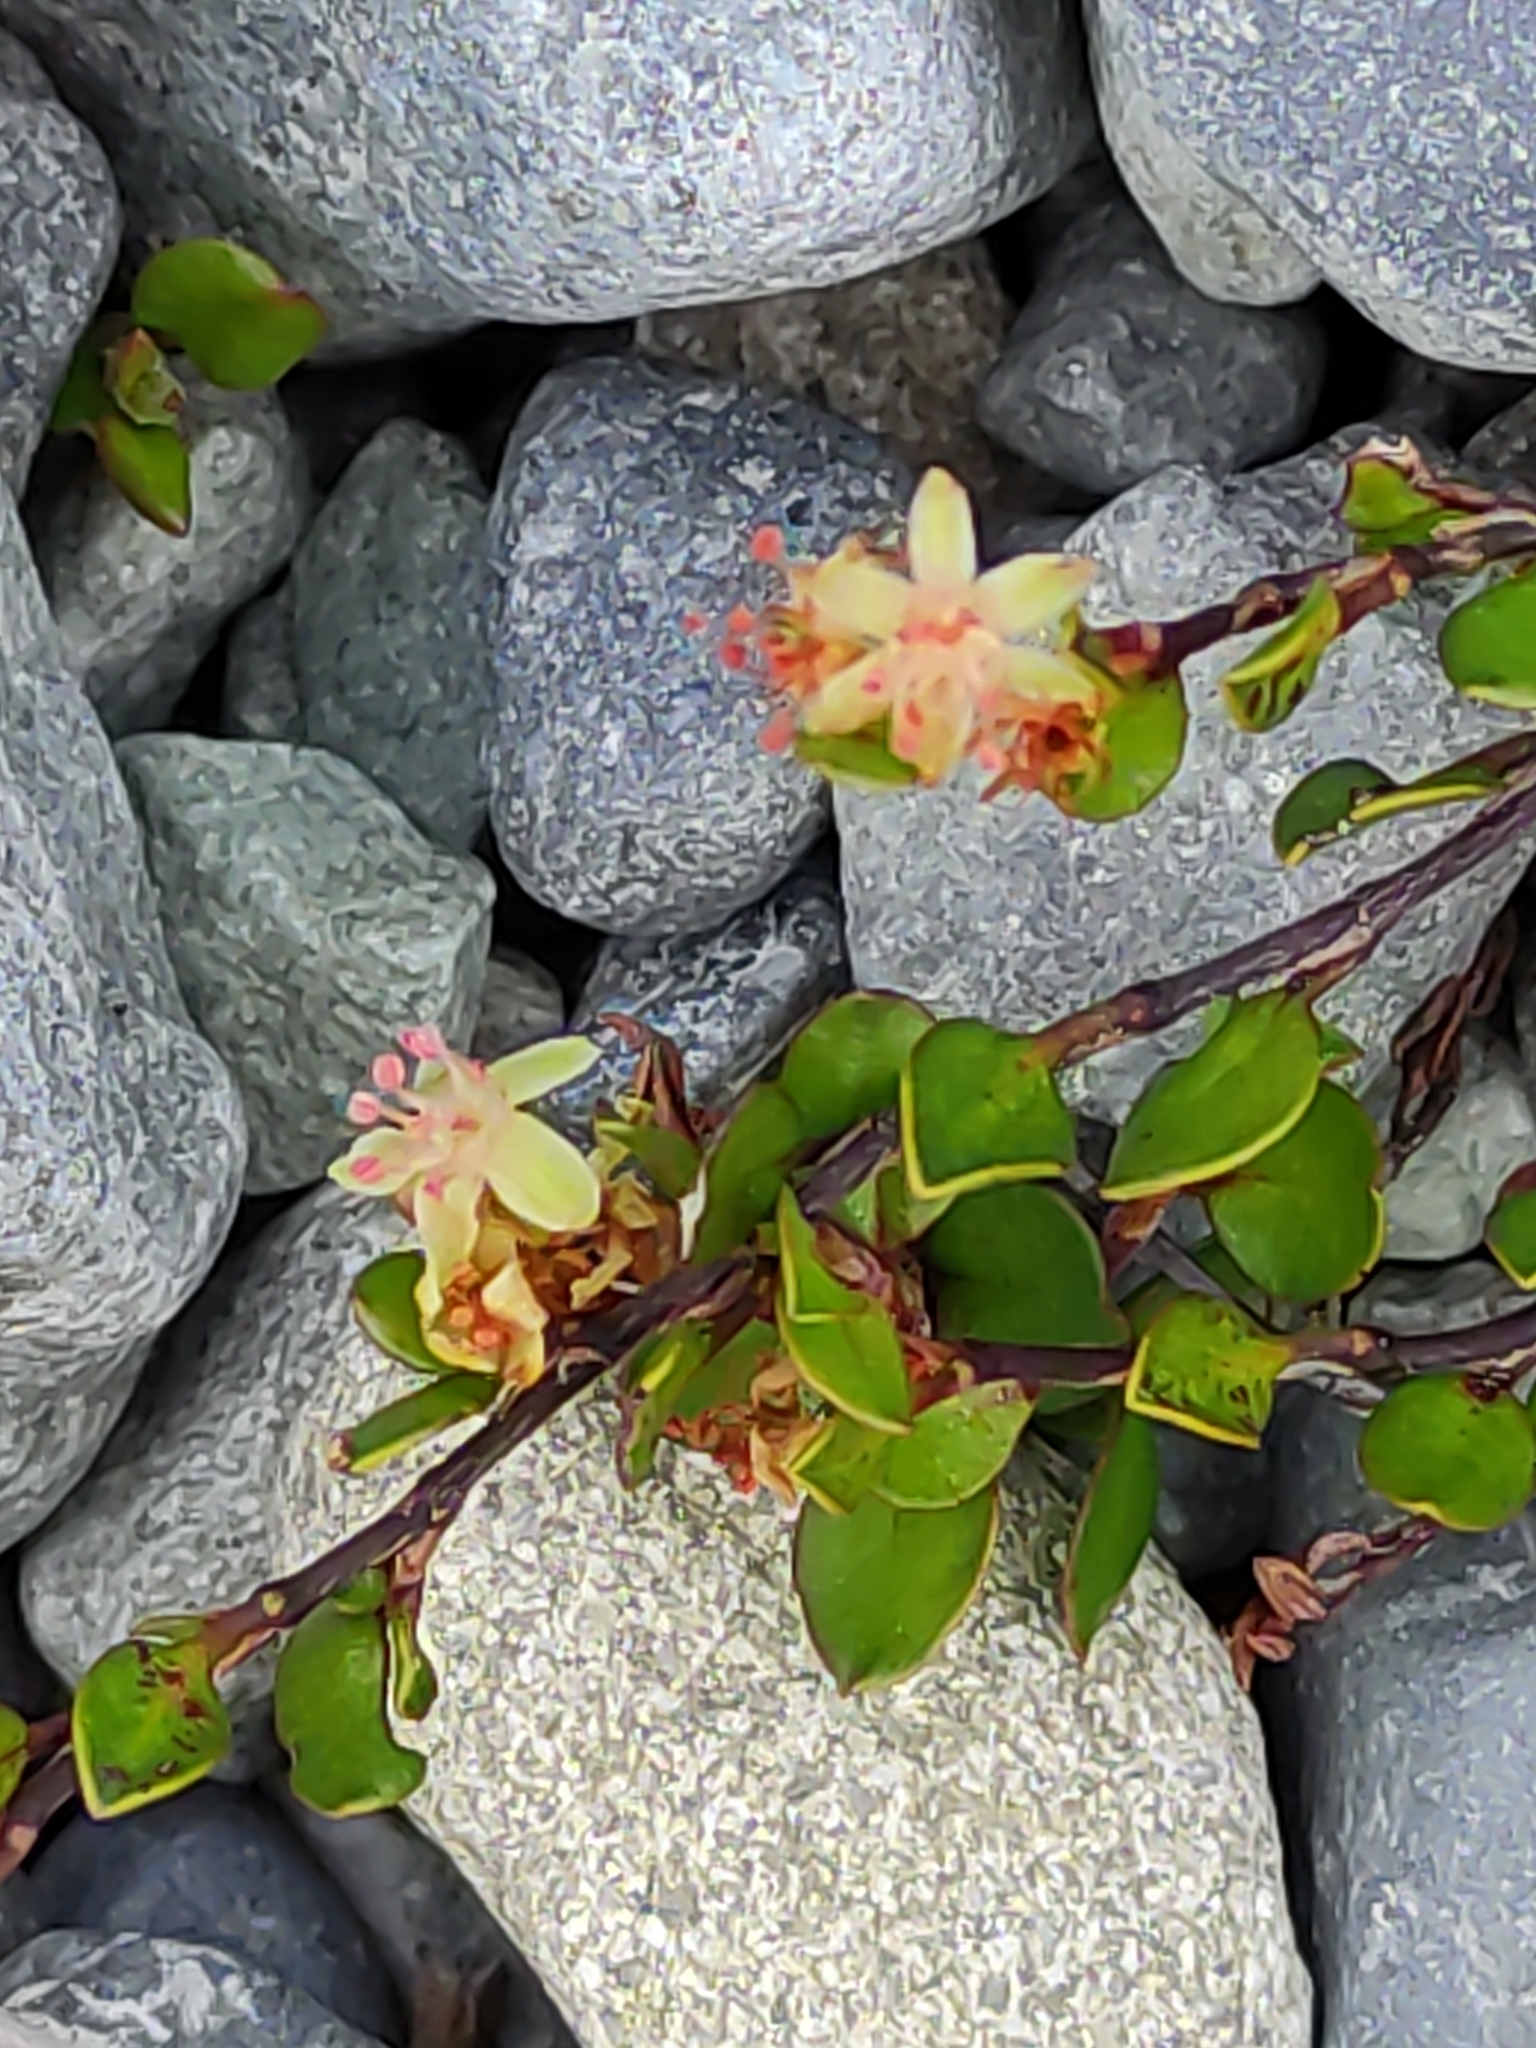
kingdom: Plantae
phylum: Tracheophyta
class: Magnoliopsida
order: Caryophyllales
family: Polygonaceae
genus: Muehlenbeckia
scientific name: Muehlenbeckia axillaris
